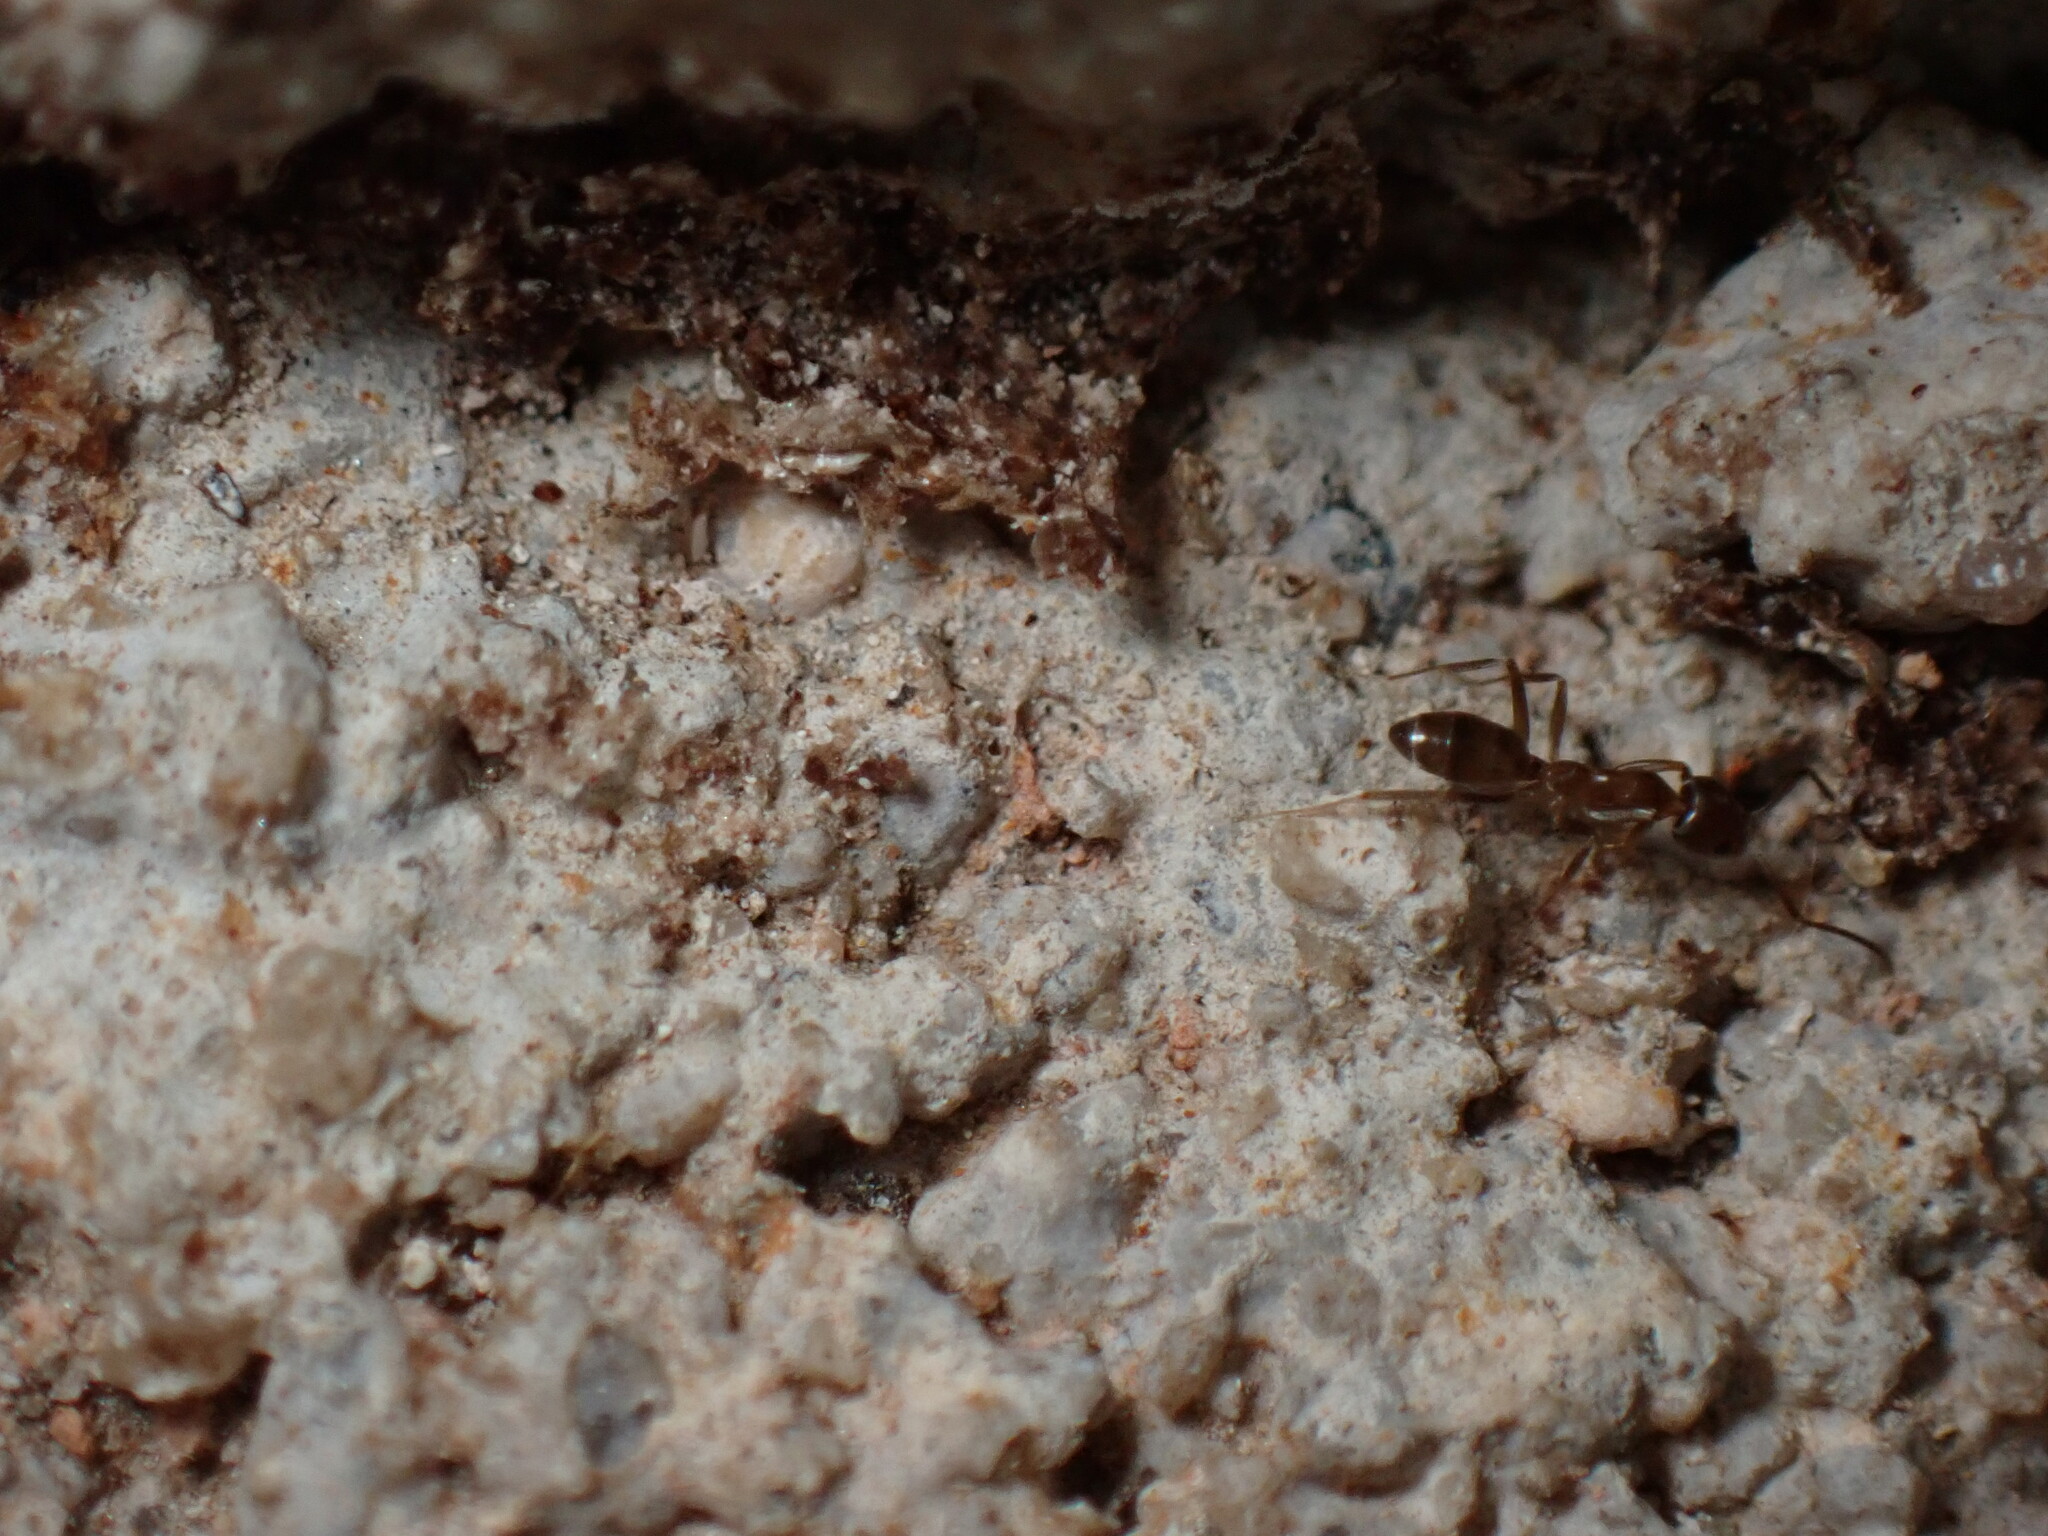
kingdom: Animalia
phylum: Arthropoda
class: Insecta
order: Hymenoptera
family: Formicidae
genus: Linepithema
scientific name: Linepithema humile
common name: Argentine ant
